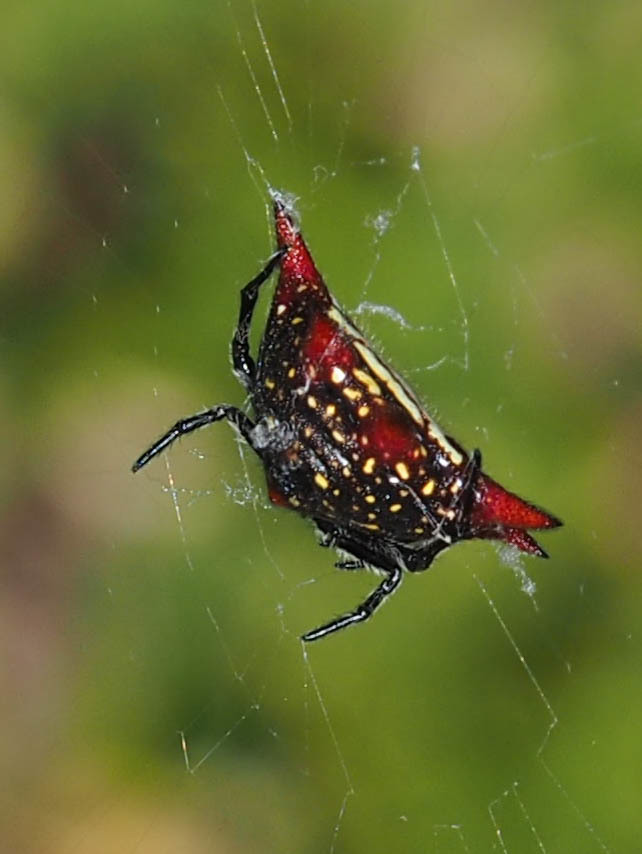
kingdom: Animalia
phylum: Arthropoda
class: Arachnida
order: Araneae
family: Araneidae
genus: Gasteracantha
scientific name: Gasteracantha cancriformis
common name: Orb weavers
